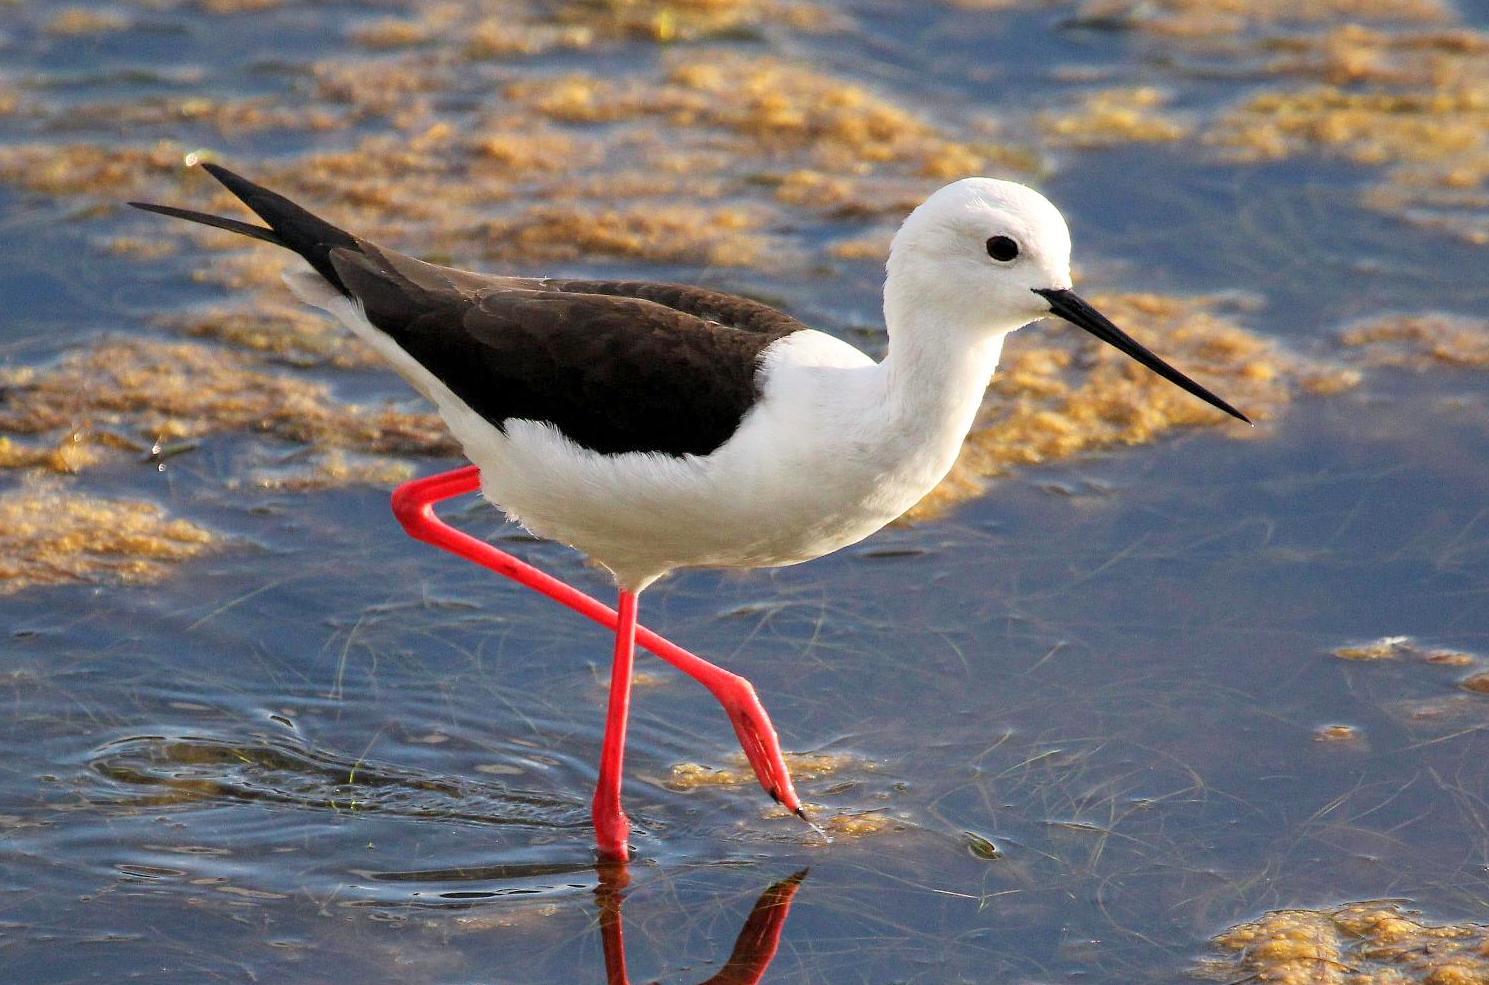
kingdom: Animalia
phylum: Chordata
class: Aves
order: Charadriiformes
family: Recurvirostridae
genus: Himantopus
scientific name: Himantopus himantopus
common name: Black-winged stilt
